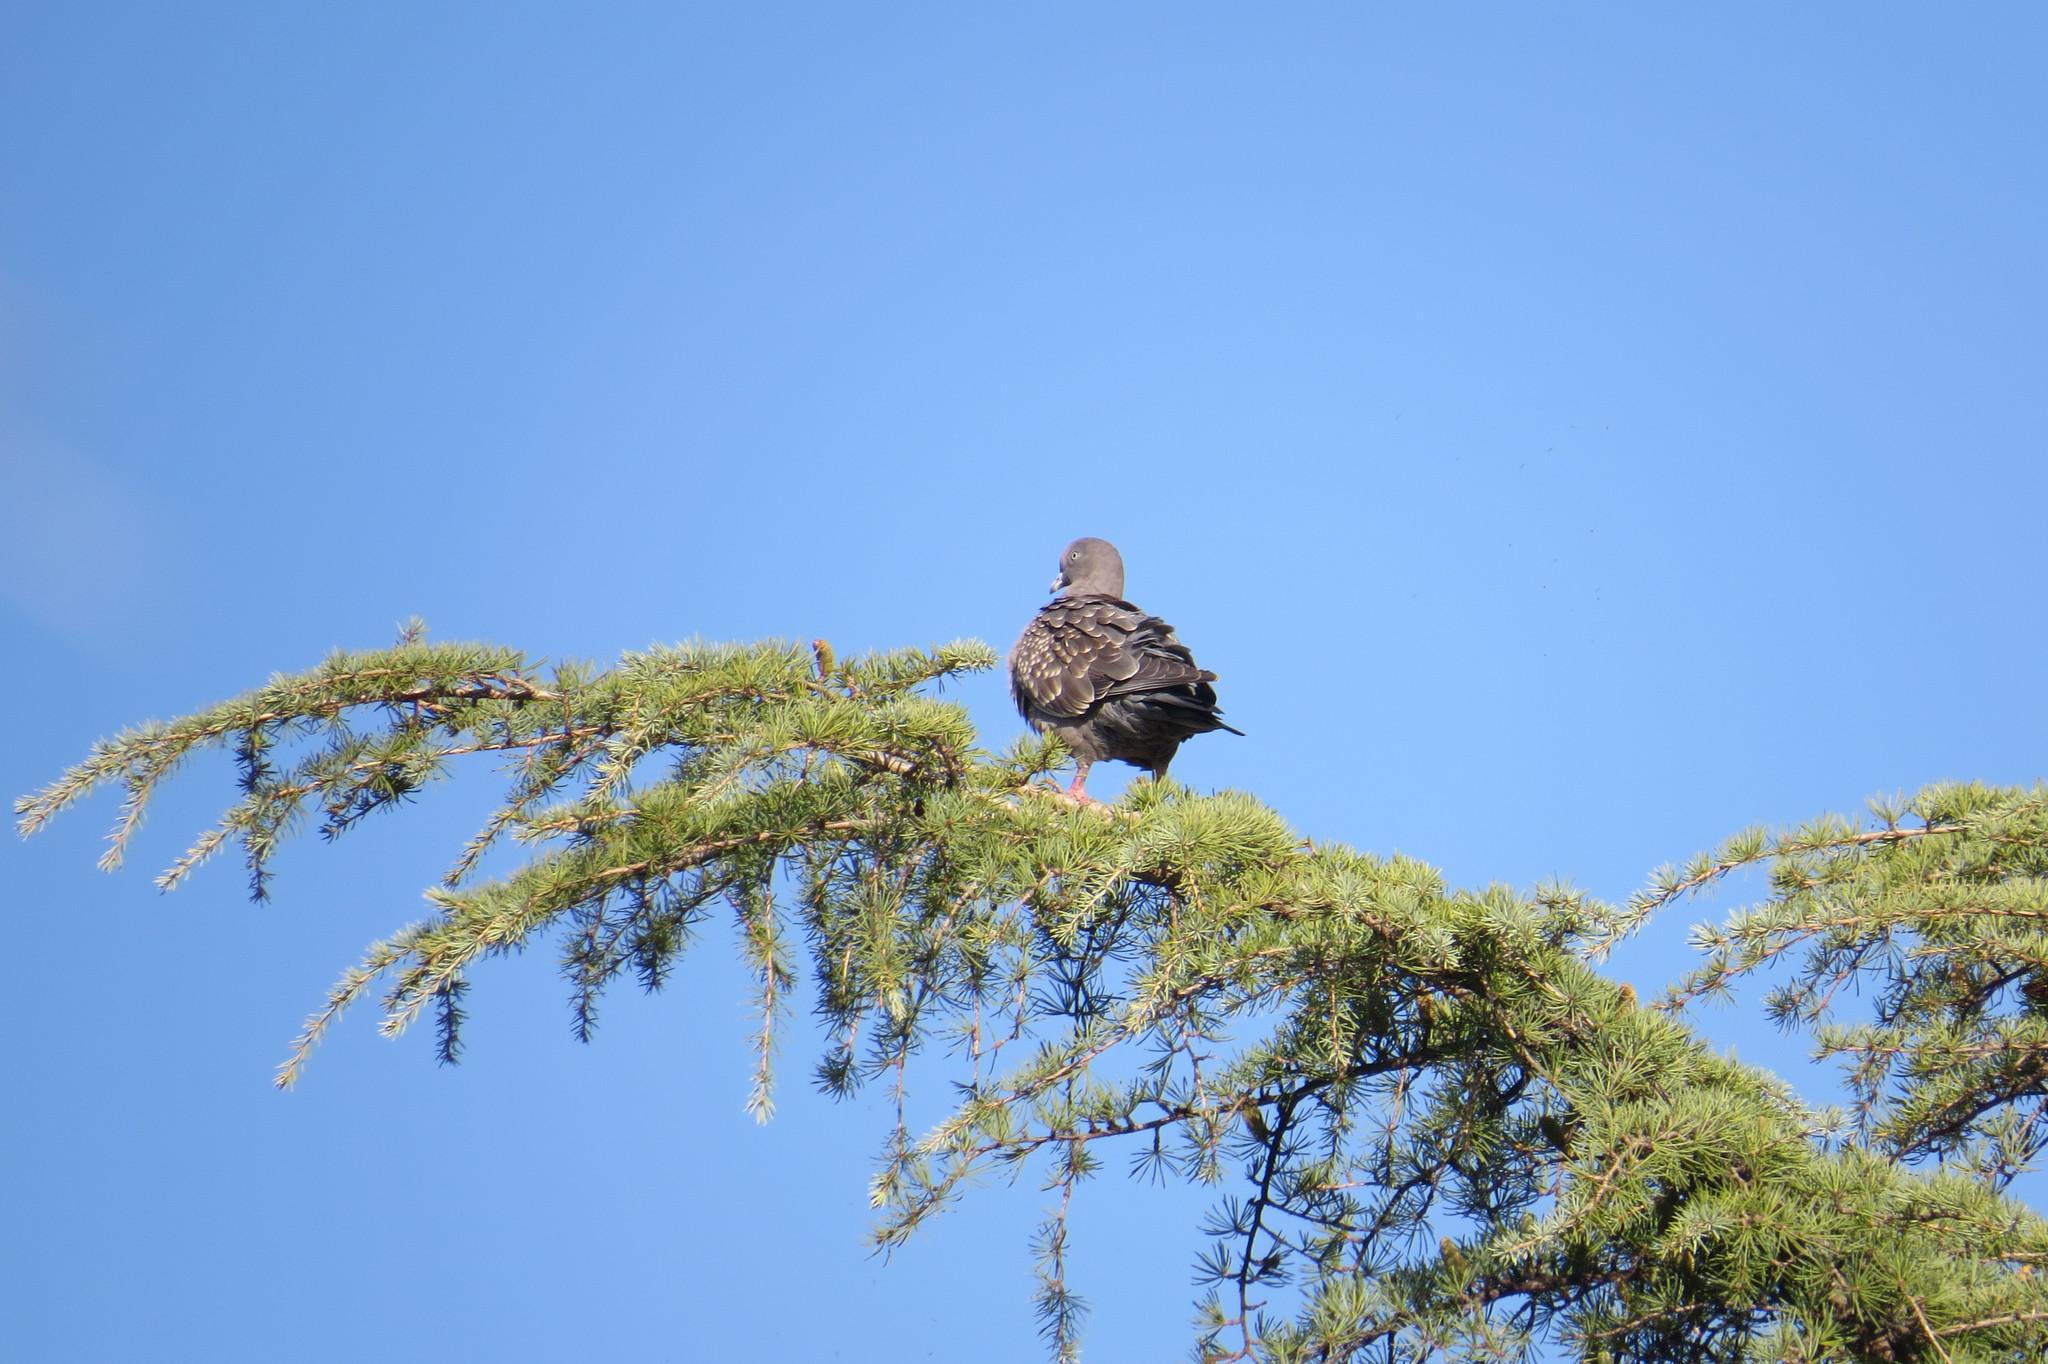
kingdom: Animalia
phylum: Chordata
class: Aves
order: Columbiformes
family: Columbidae
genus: Patagioenas
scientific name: Patagioenas maculosa
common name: Spot-winged pigeon
